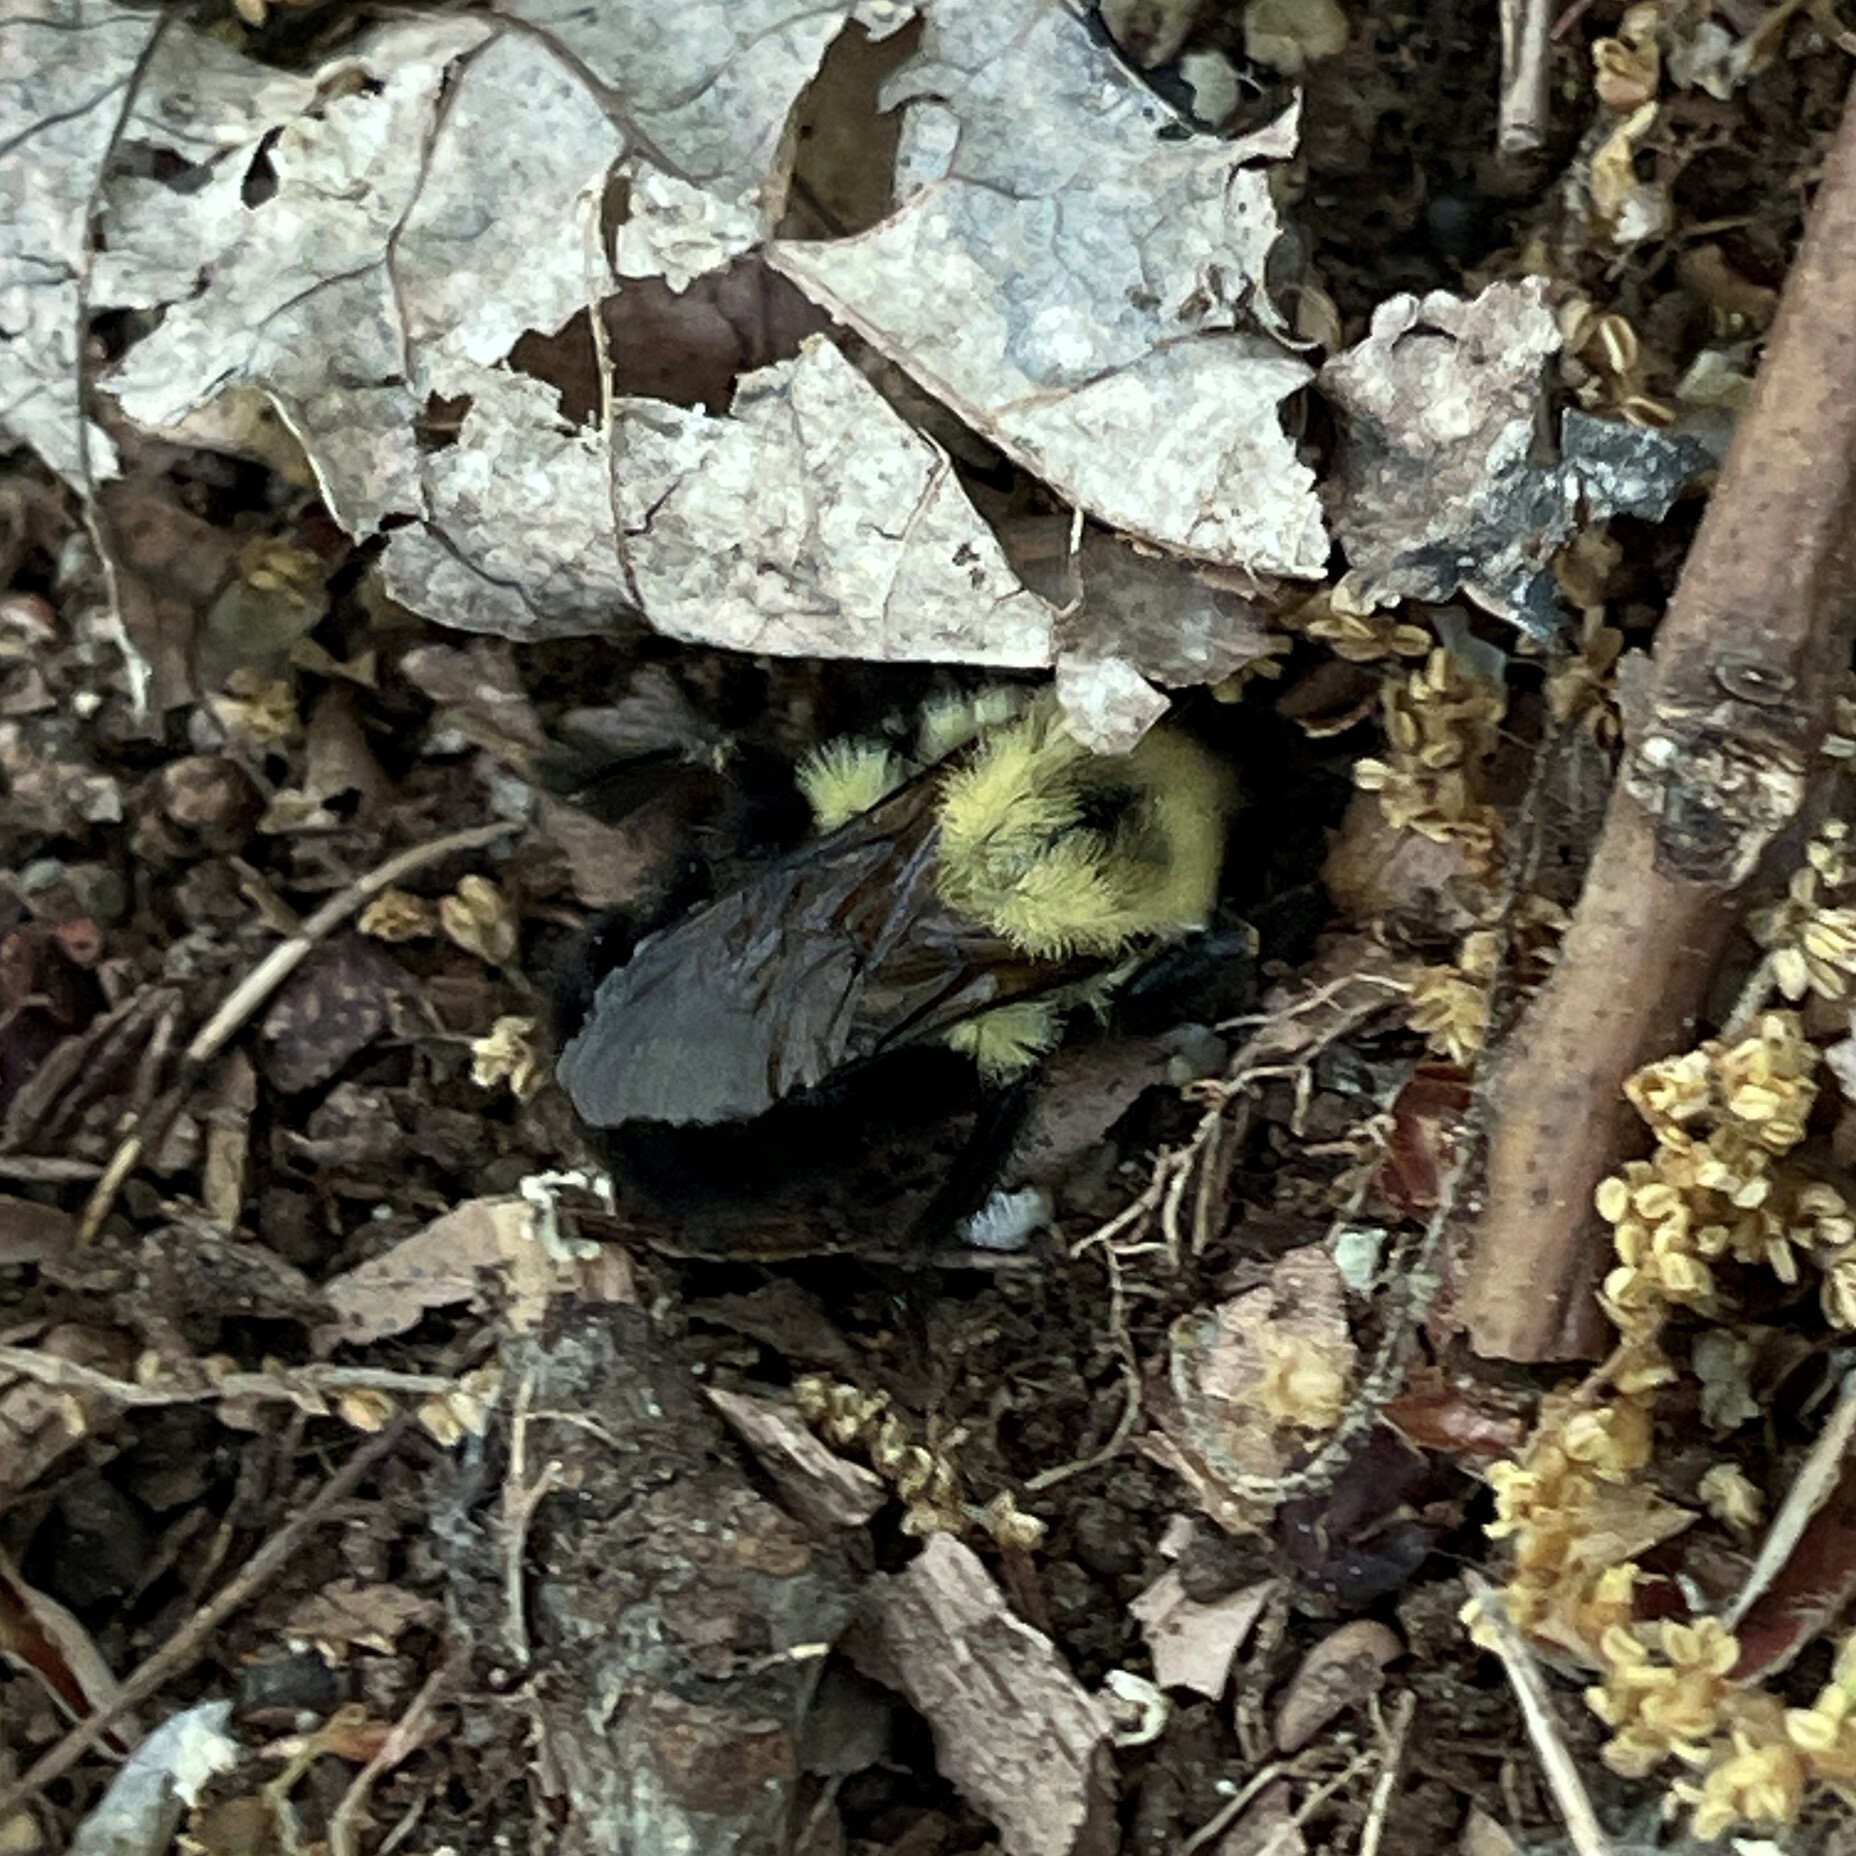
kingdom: Animalia
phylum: Arthropoda
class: Insecta
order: Hymenoptera
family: Apidae
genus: Bombus
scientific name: Bombus bimaculatus
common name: Two-spotted bumble bee
